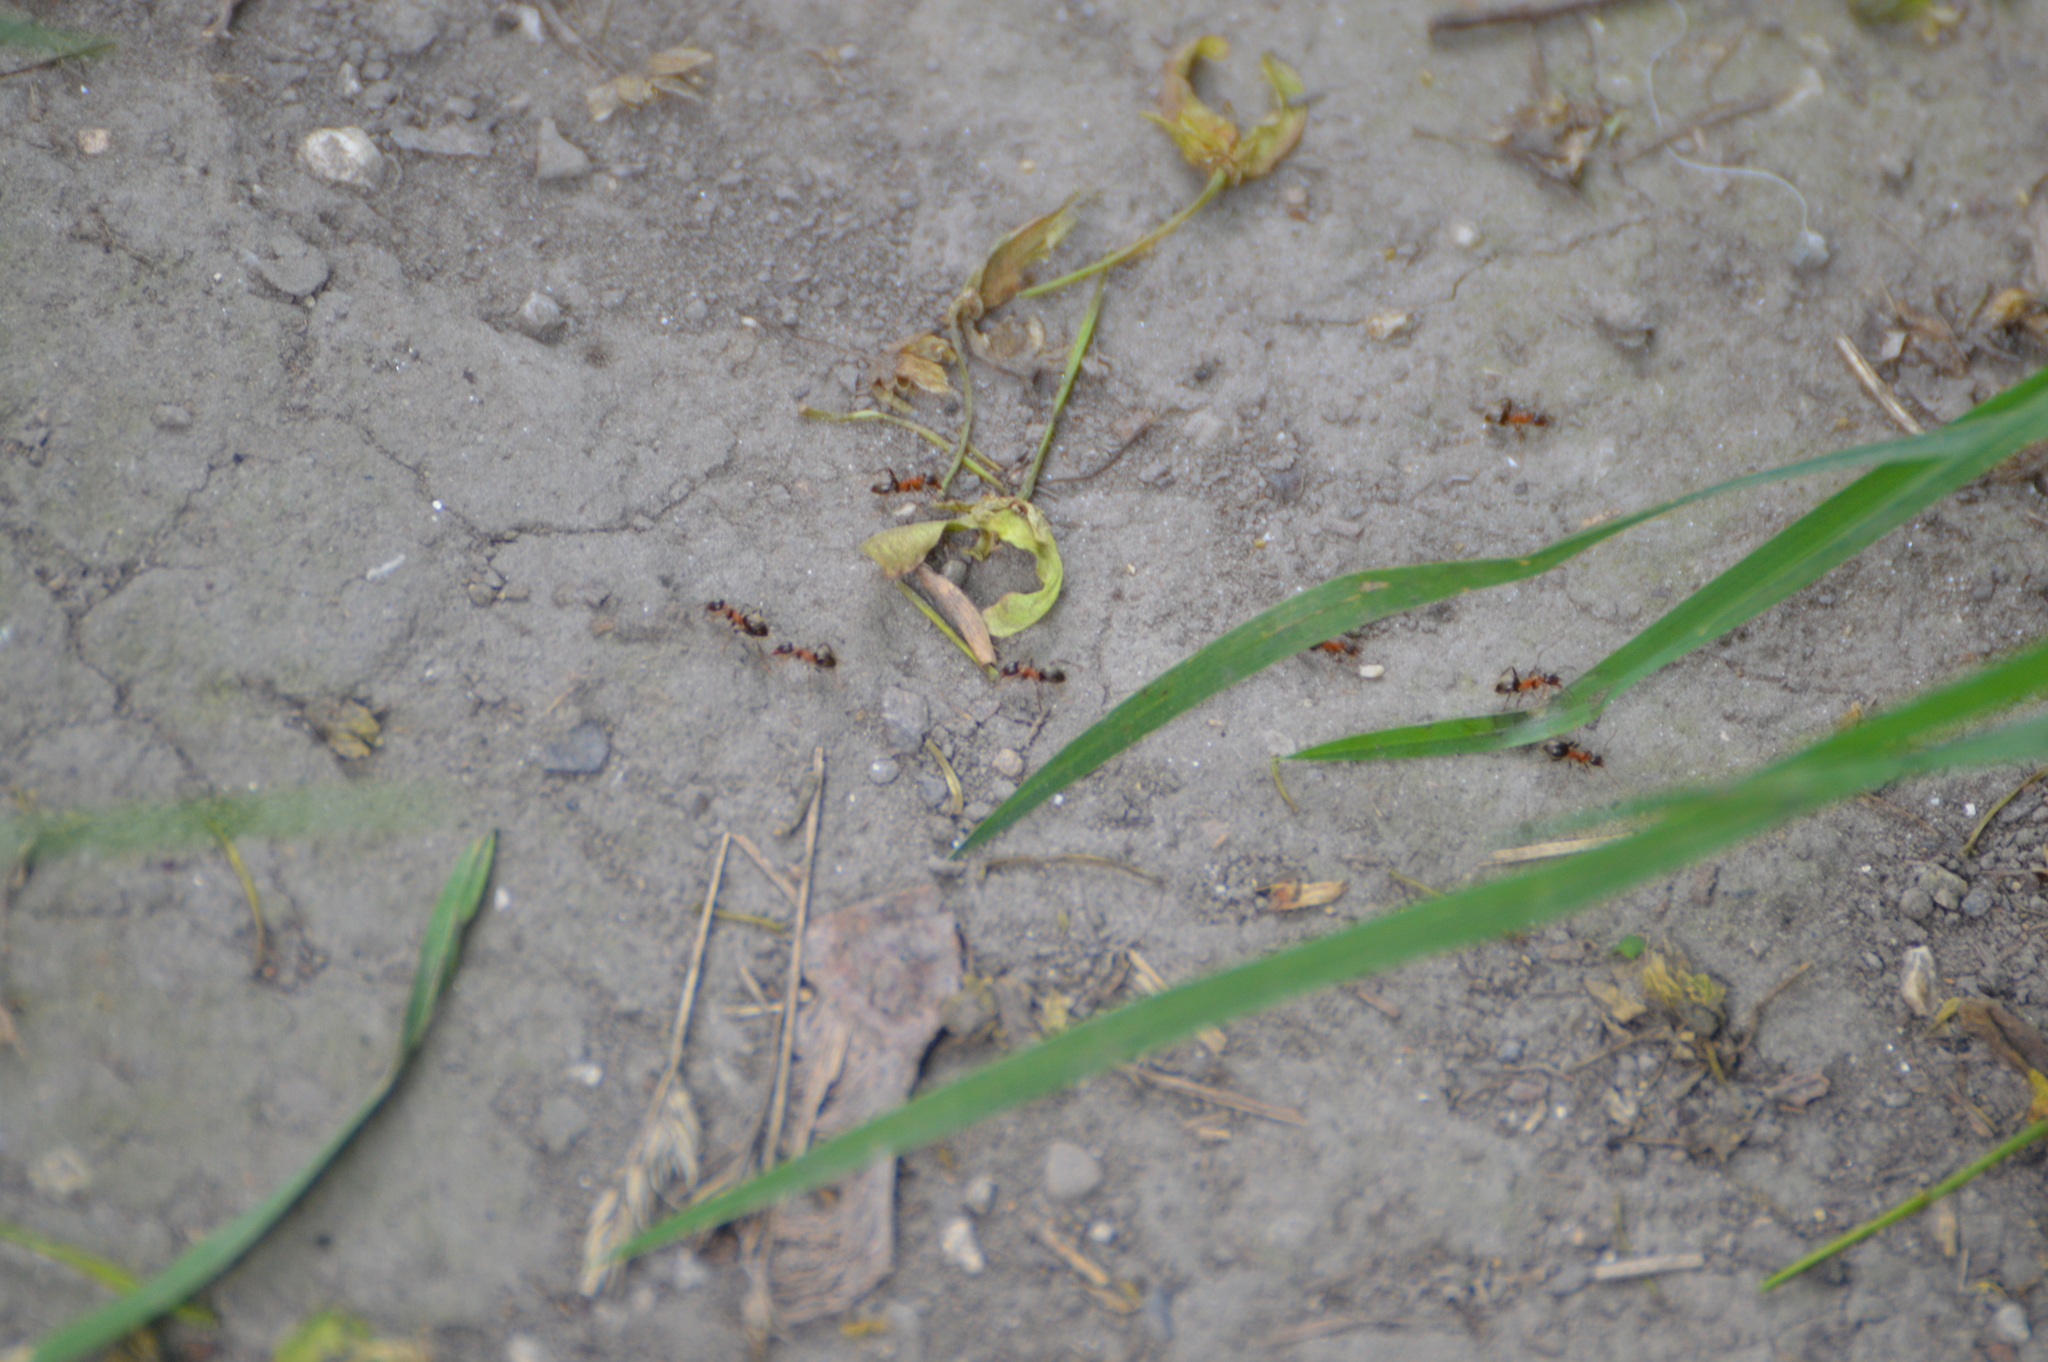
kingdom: Animalia
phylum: Arthropoda
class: Insecta
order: Hymenoptera
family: Formicidae
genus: Lasius
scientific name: Lasius emarginatus
